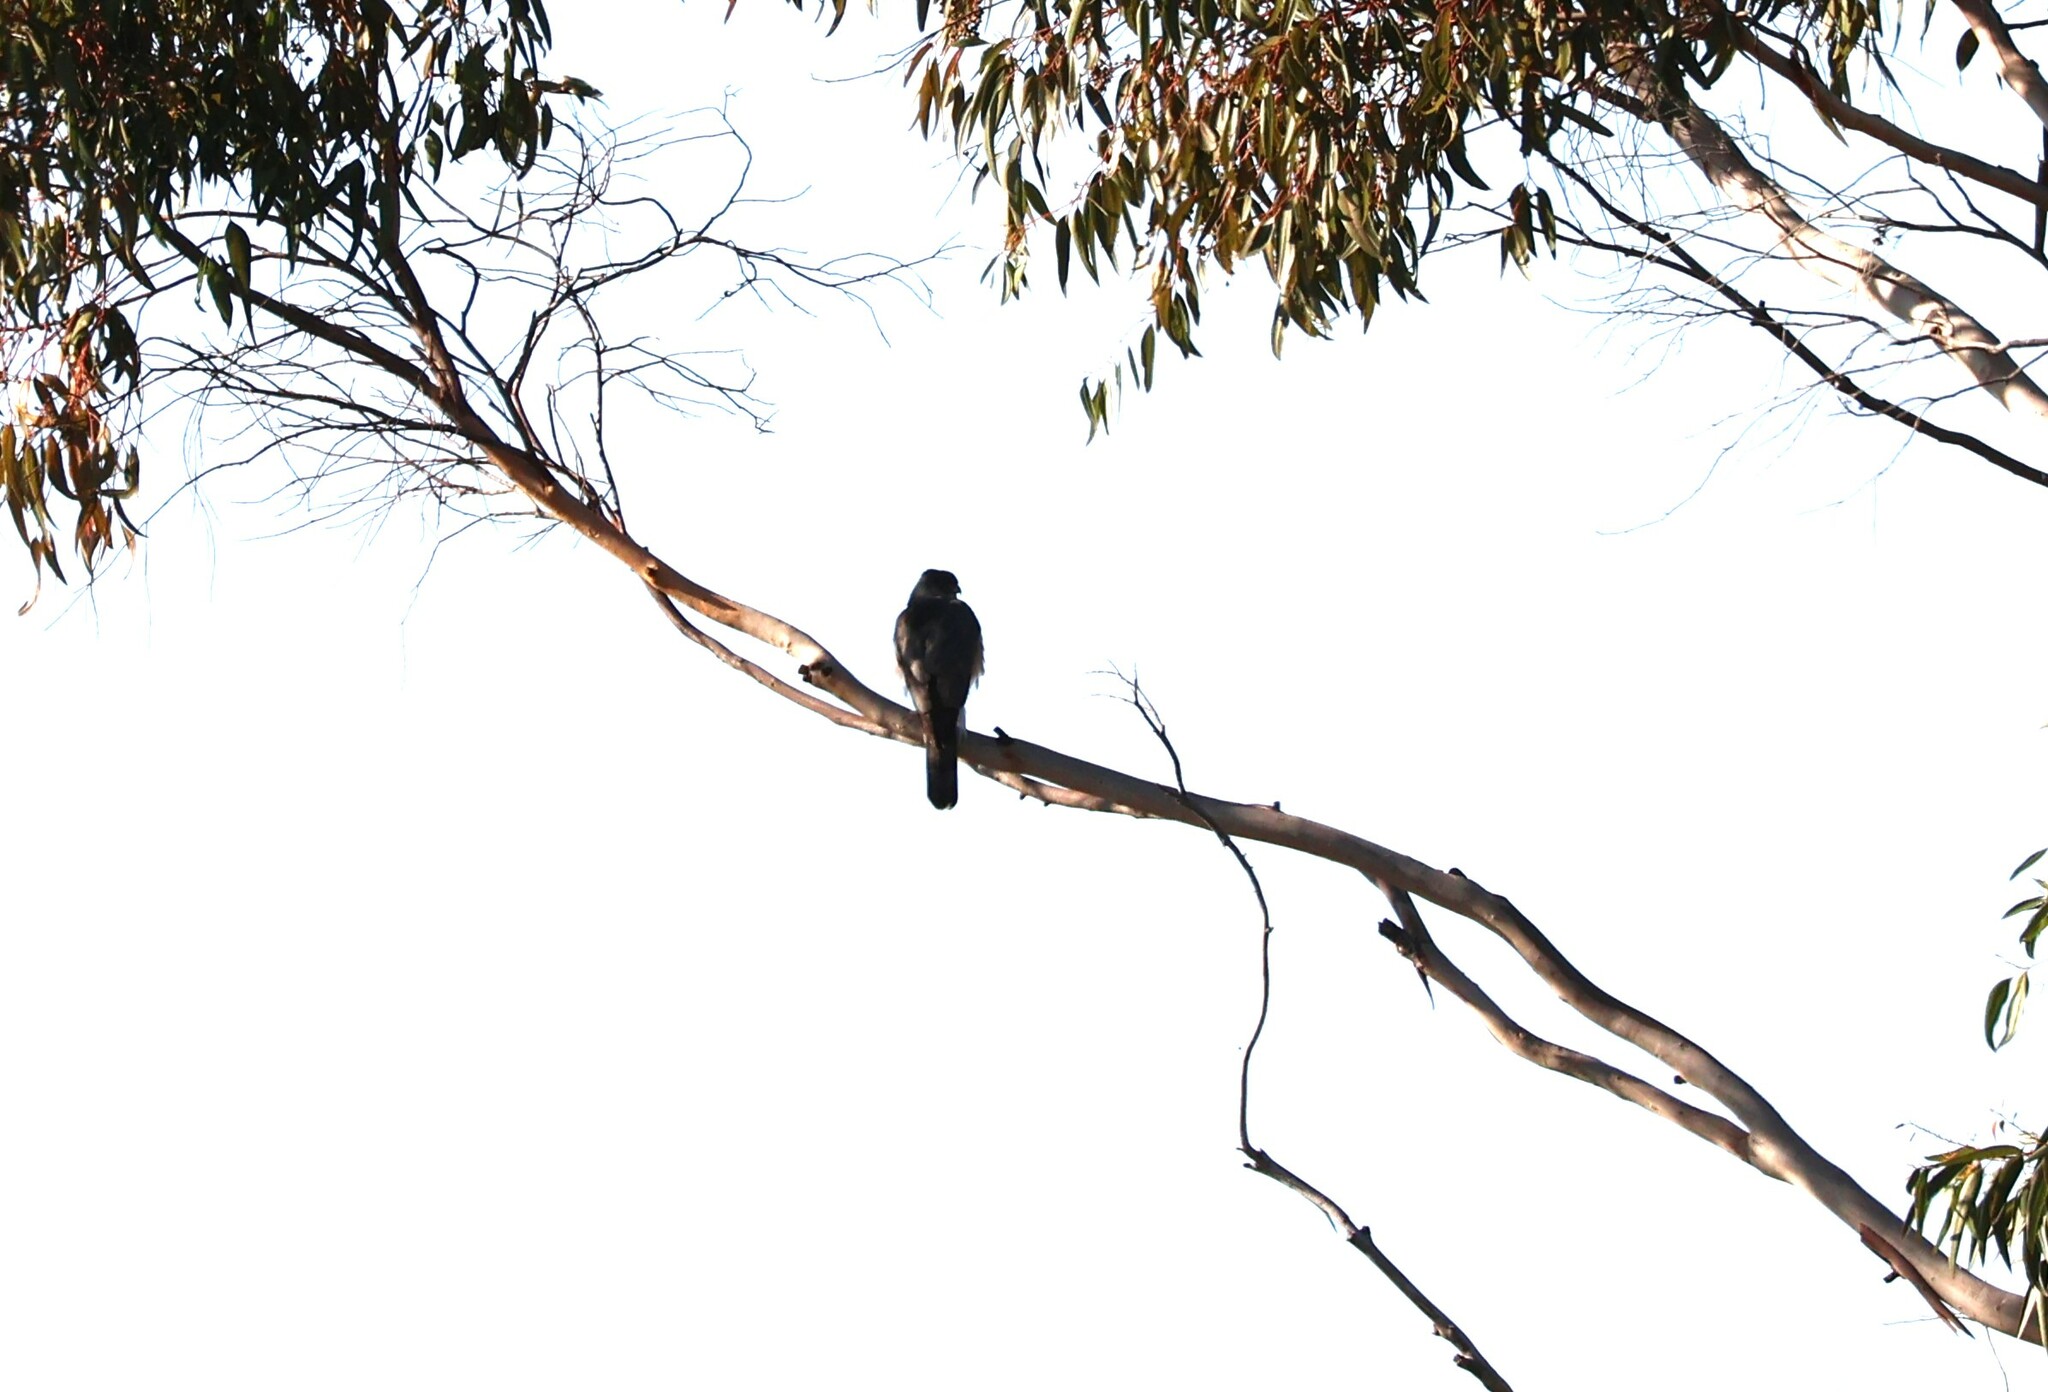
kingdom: Animalia
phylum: Chordata
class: Aves
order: Accipitriformes
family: Accipitridae
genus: Accipiter
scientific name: Accipiter cooperii
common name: Cooper's hawk
